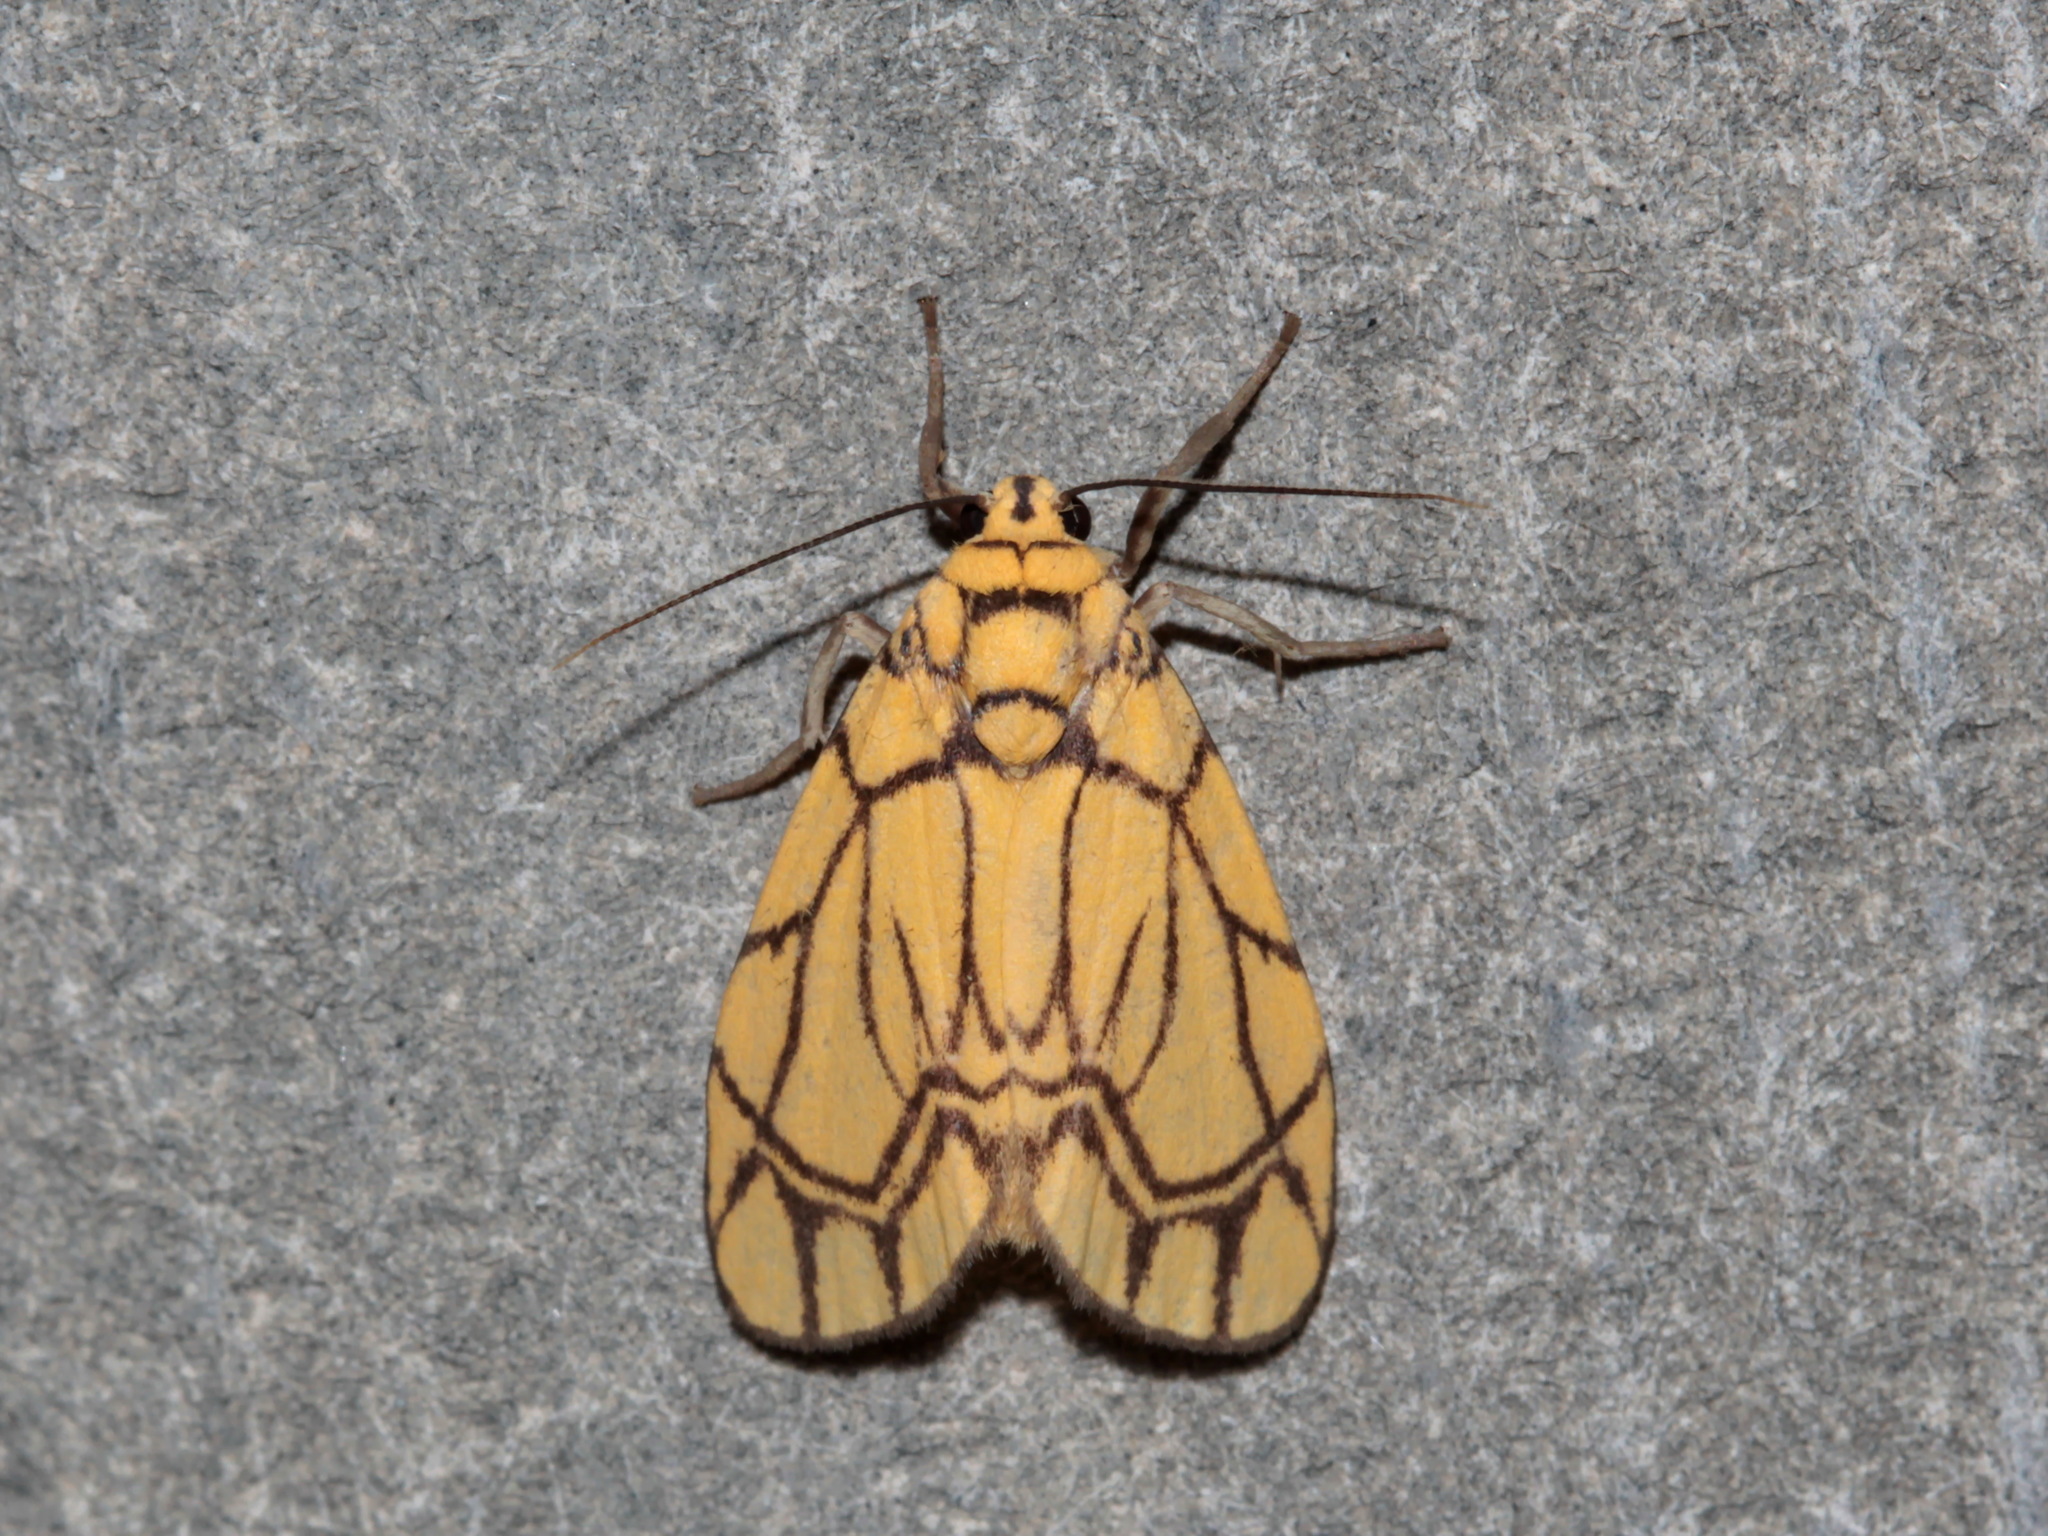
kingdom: Animalia
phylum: Arthropoda
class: Insecta
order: Lepidoptera
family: Erebidae
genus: Cyme
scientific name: Cyme euprepioides
